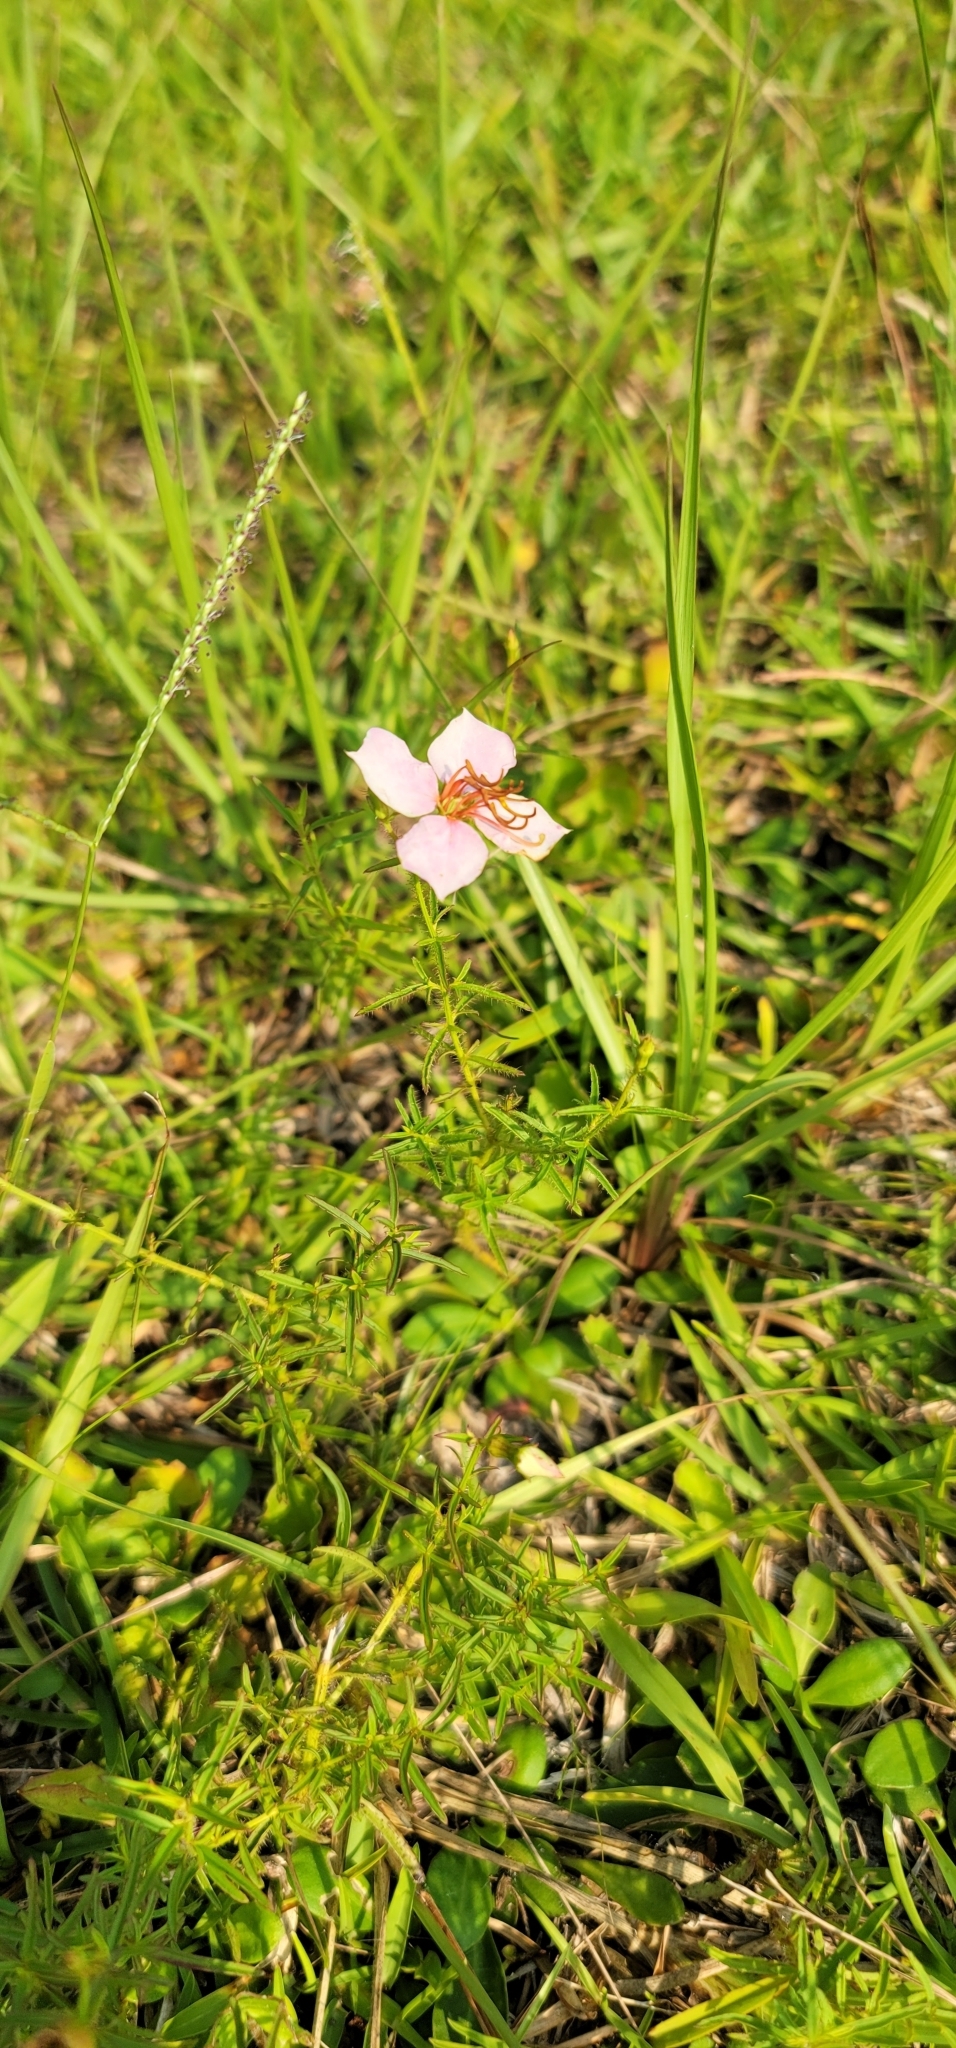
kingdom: Plantae
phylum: Tracheophyta
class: Magnoliopsida
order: Myrtales
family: Melastomataceae
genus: Rhexia
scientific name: Rhexia mariana
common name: Dull meadow-pitcher
